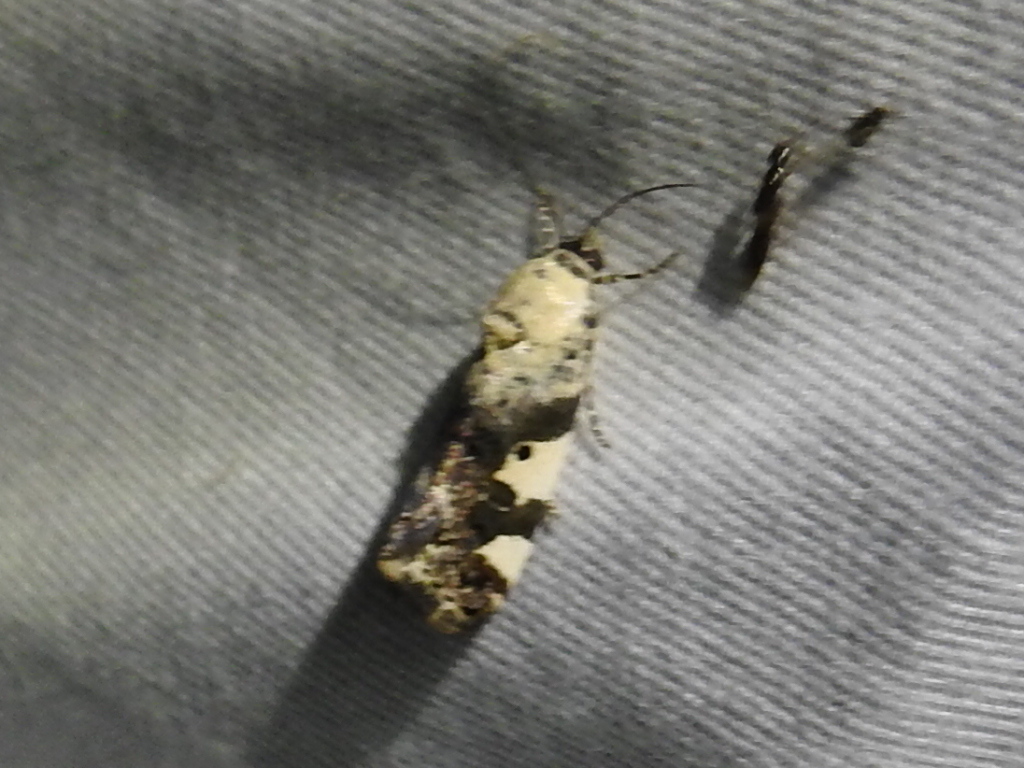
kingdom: Animalia
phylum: Arthropoda
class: Insecta
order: Lepidoptera
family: Noctuidae
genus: Acontia
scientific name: Acontia aprica
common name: Nun
